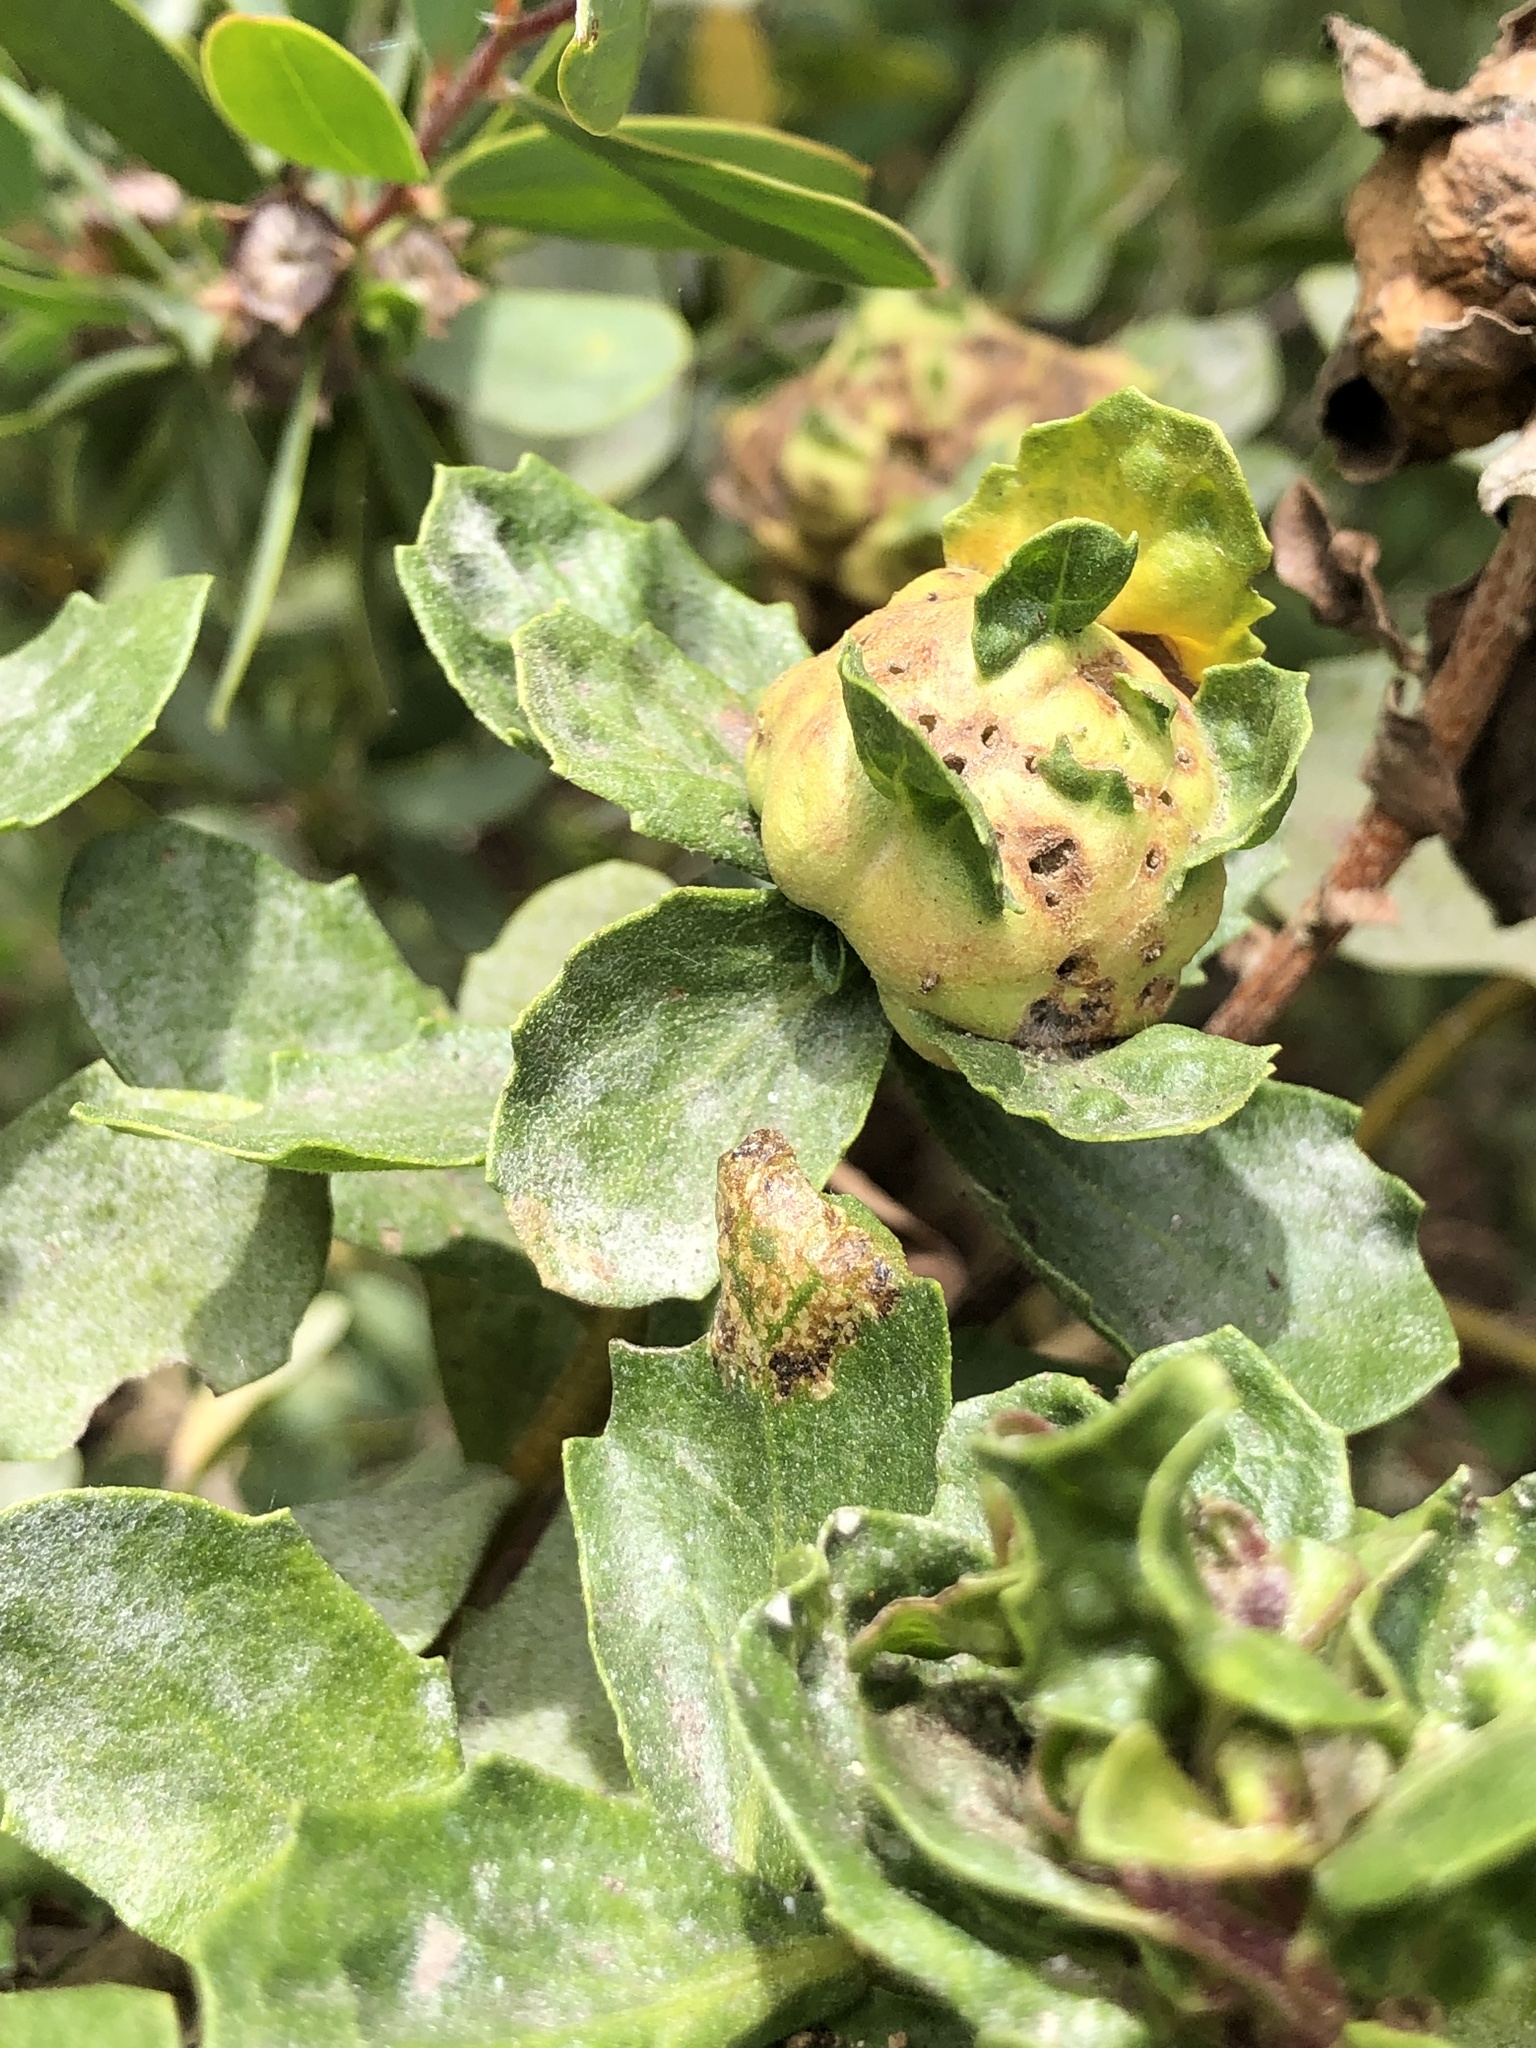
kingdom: Animalia
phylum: Arthropoda
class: Insecta
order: Diptera
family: Cecidomyiidae
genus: Rhopalomyia
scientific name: Rhopalomyia californica
